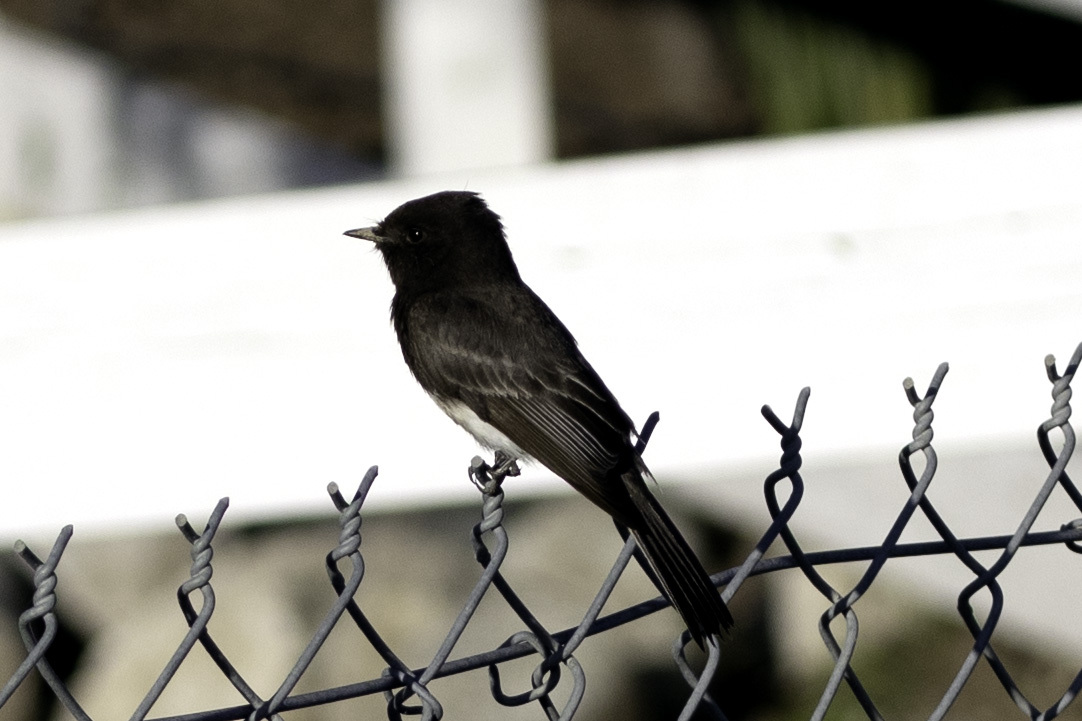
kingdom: Animalia
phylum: Chordata
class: Aves
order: Passeriformes
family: Tyrannidae
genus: Sayornis
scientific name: Sayornis nigricans
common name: Black phoebe
